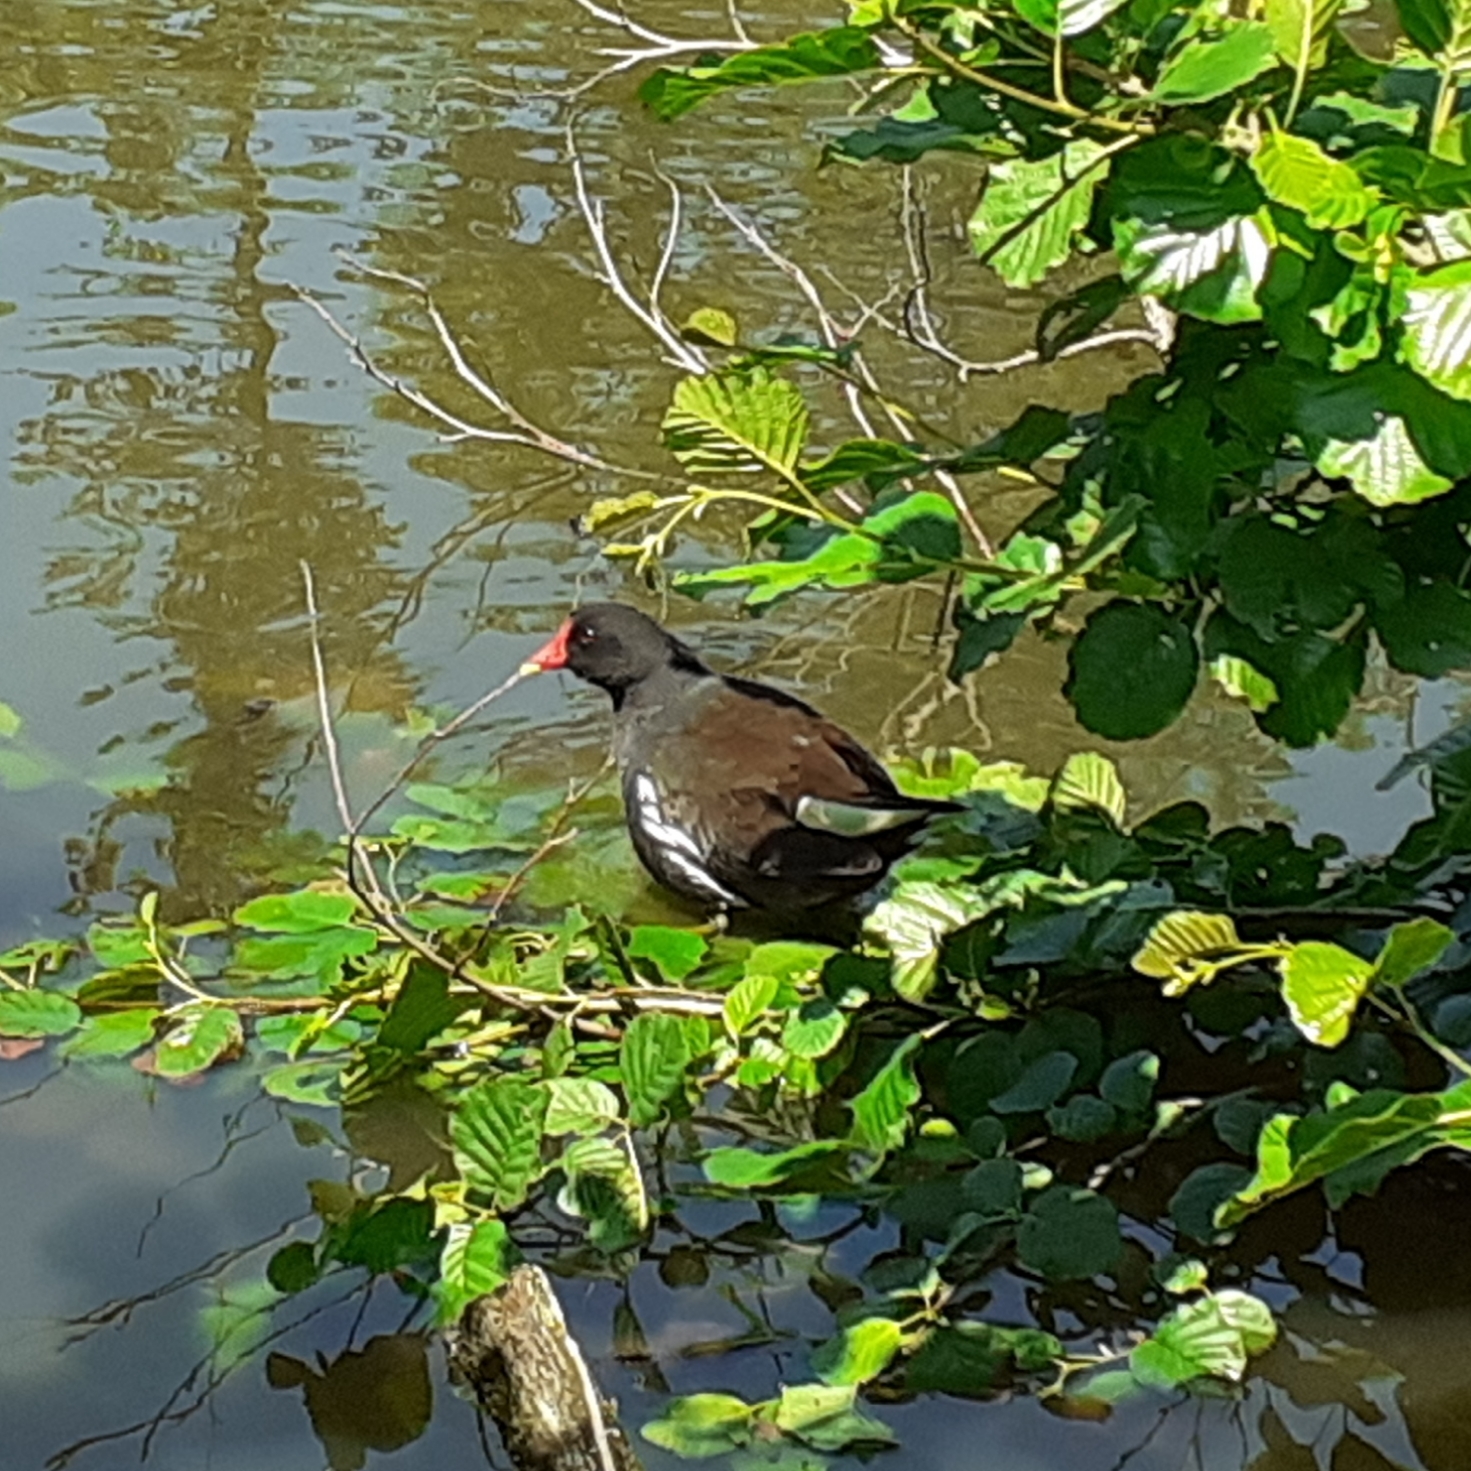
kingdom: Animalia
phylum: Chordata
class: Aves
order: Gruiformes
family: Rallidae
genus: Gallinula
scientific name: Gallinula chloropus
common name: Common moorhen
